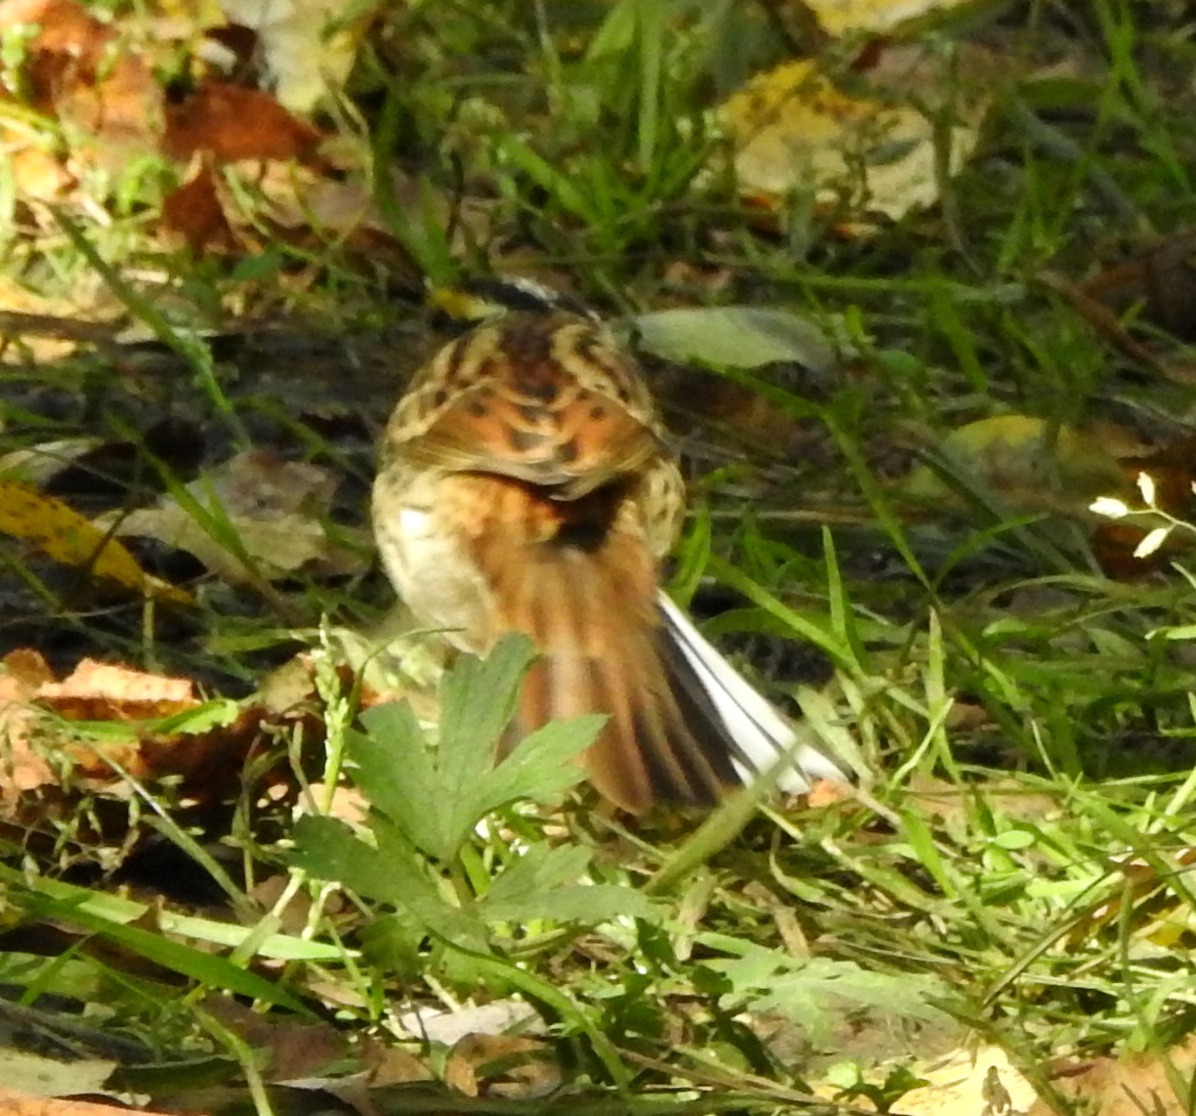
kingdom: Animalia
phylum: Chordata
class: Aves
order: Passeriformes
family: Emberizidae
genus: Emberiza
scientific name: Emberiza chrysophrys
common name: Yellow-browed bunting
